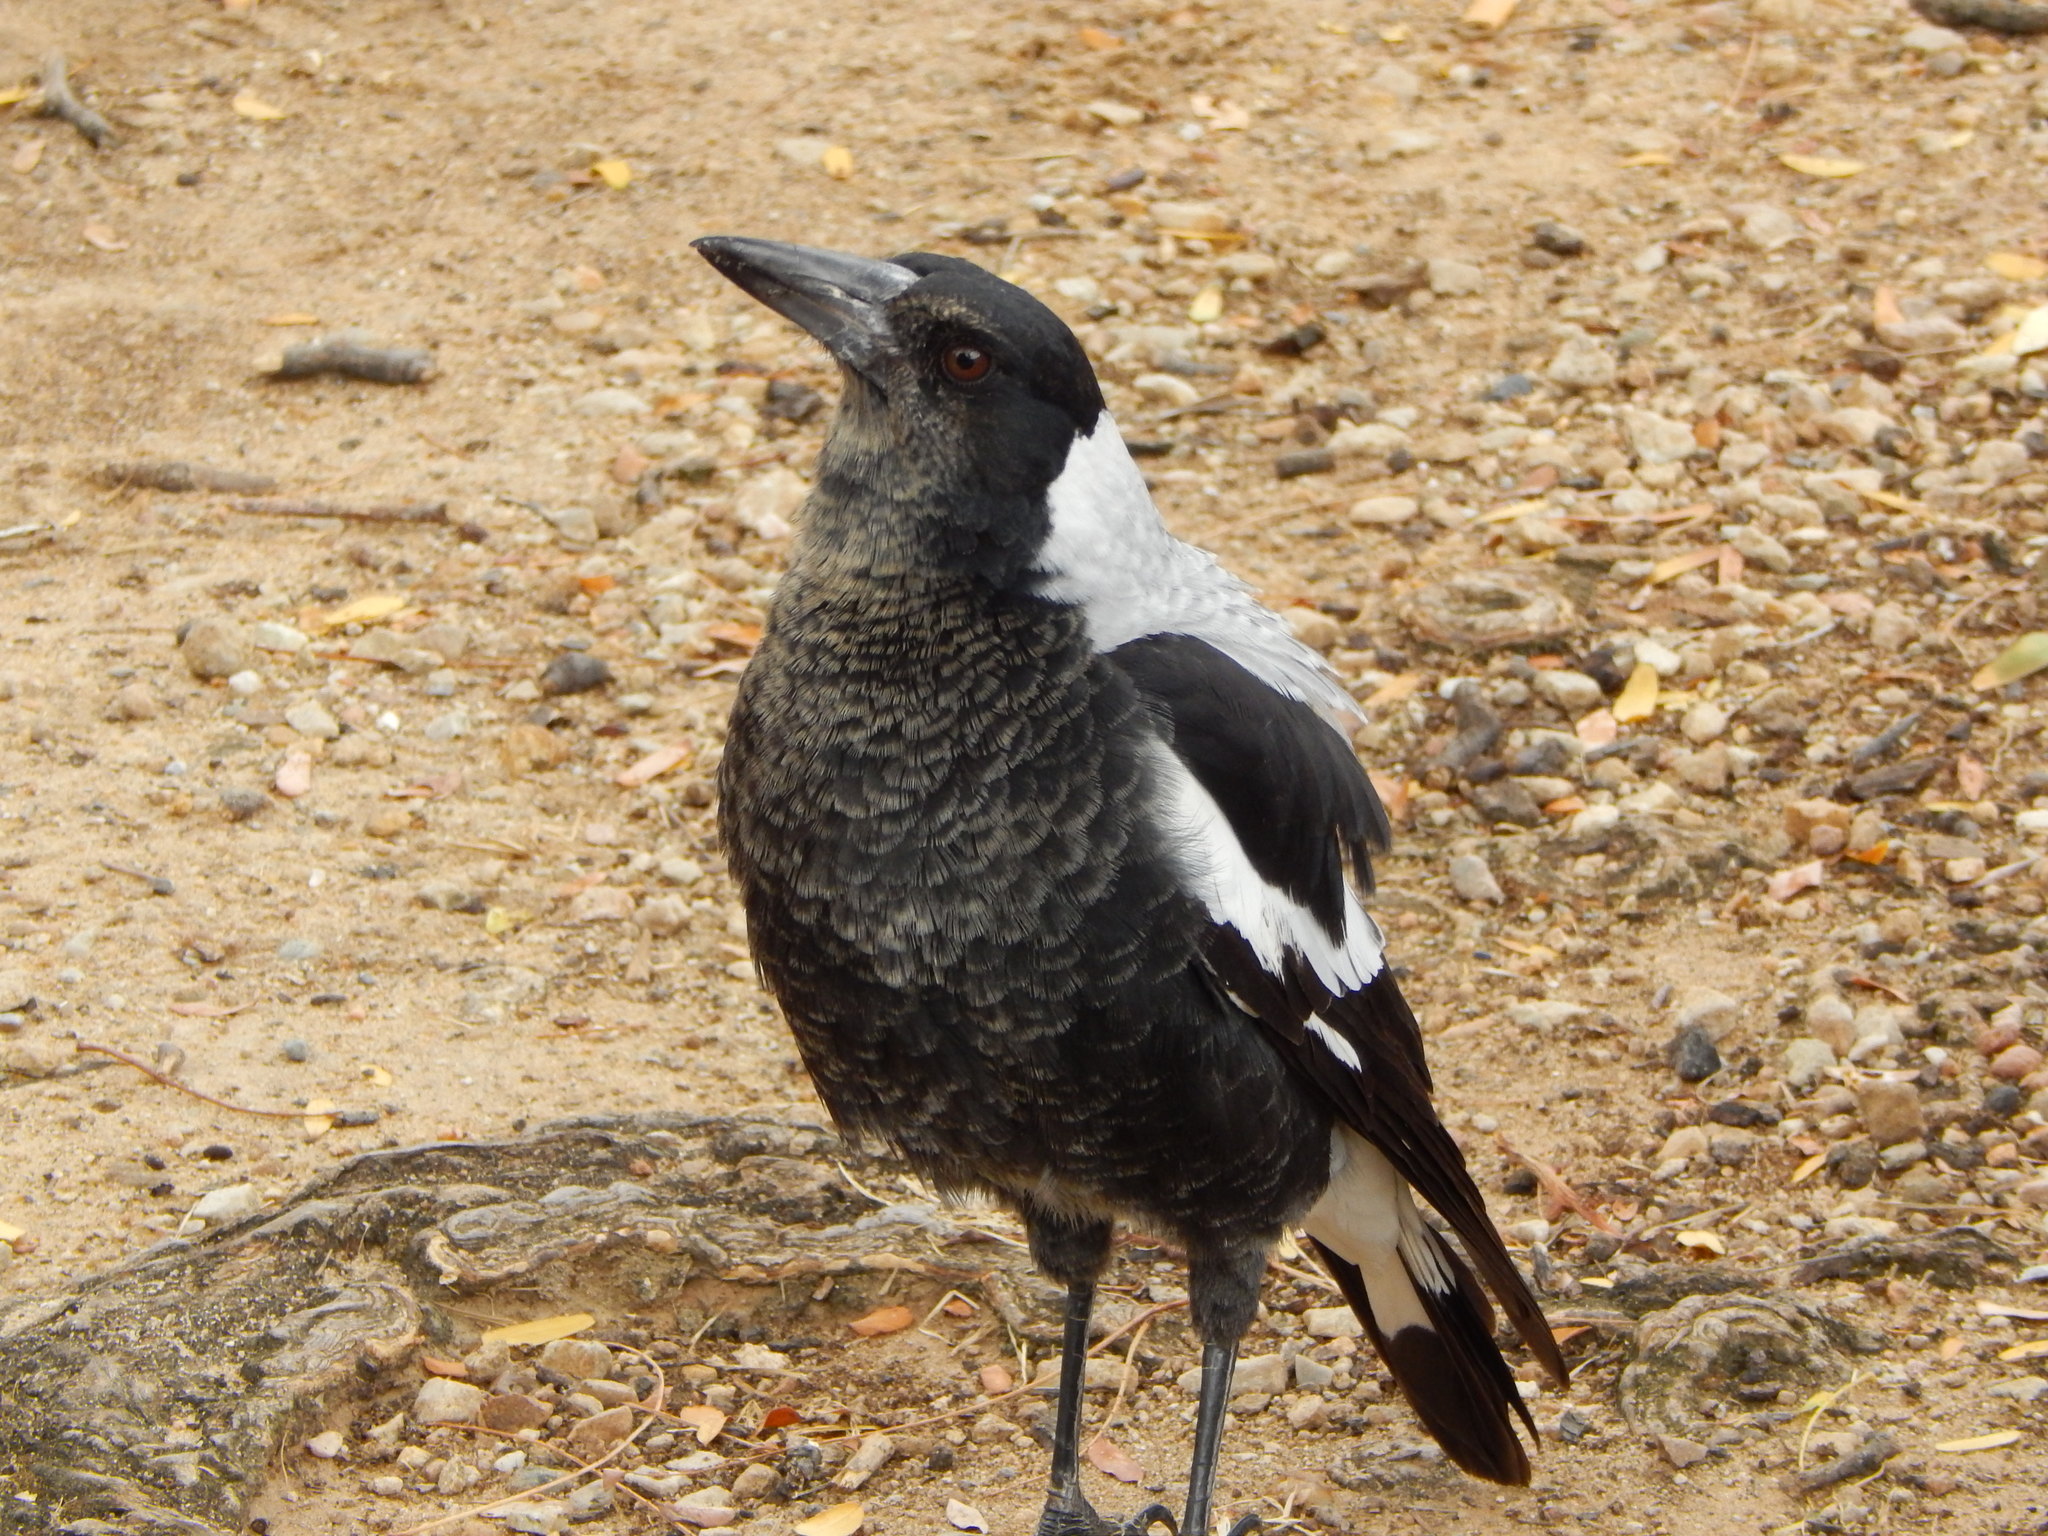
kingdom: Animalia
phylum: Chordata
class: Aves
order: Passeriformes
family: Cracticidae
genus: Gymnorhina
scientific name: Gymnorhina tibicen
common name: Australian magpie
